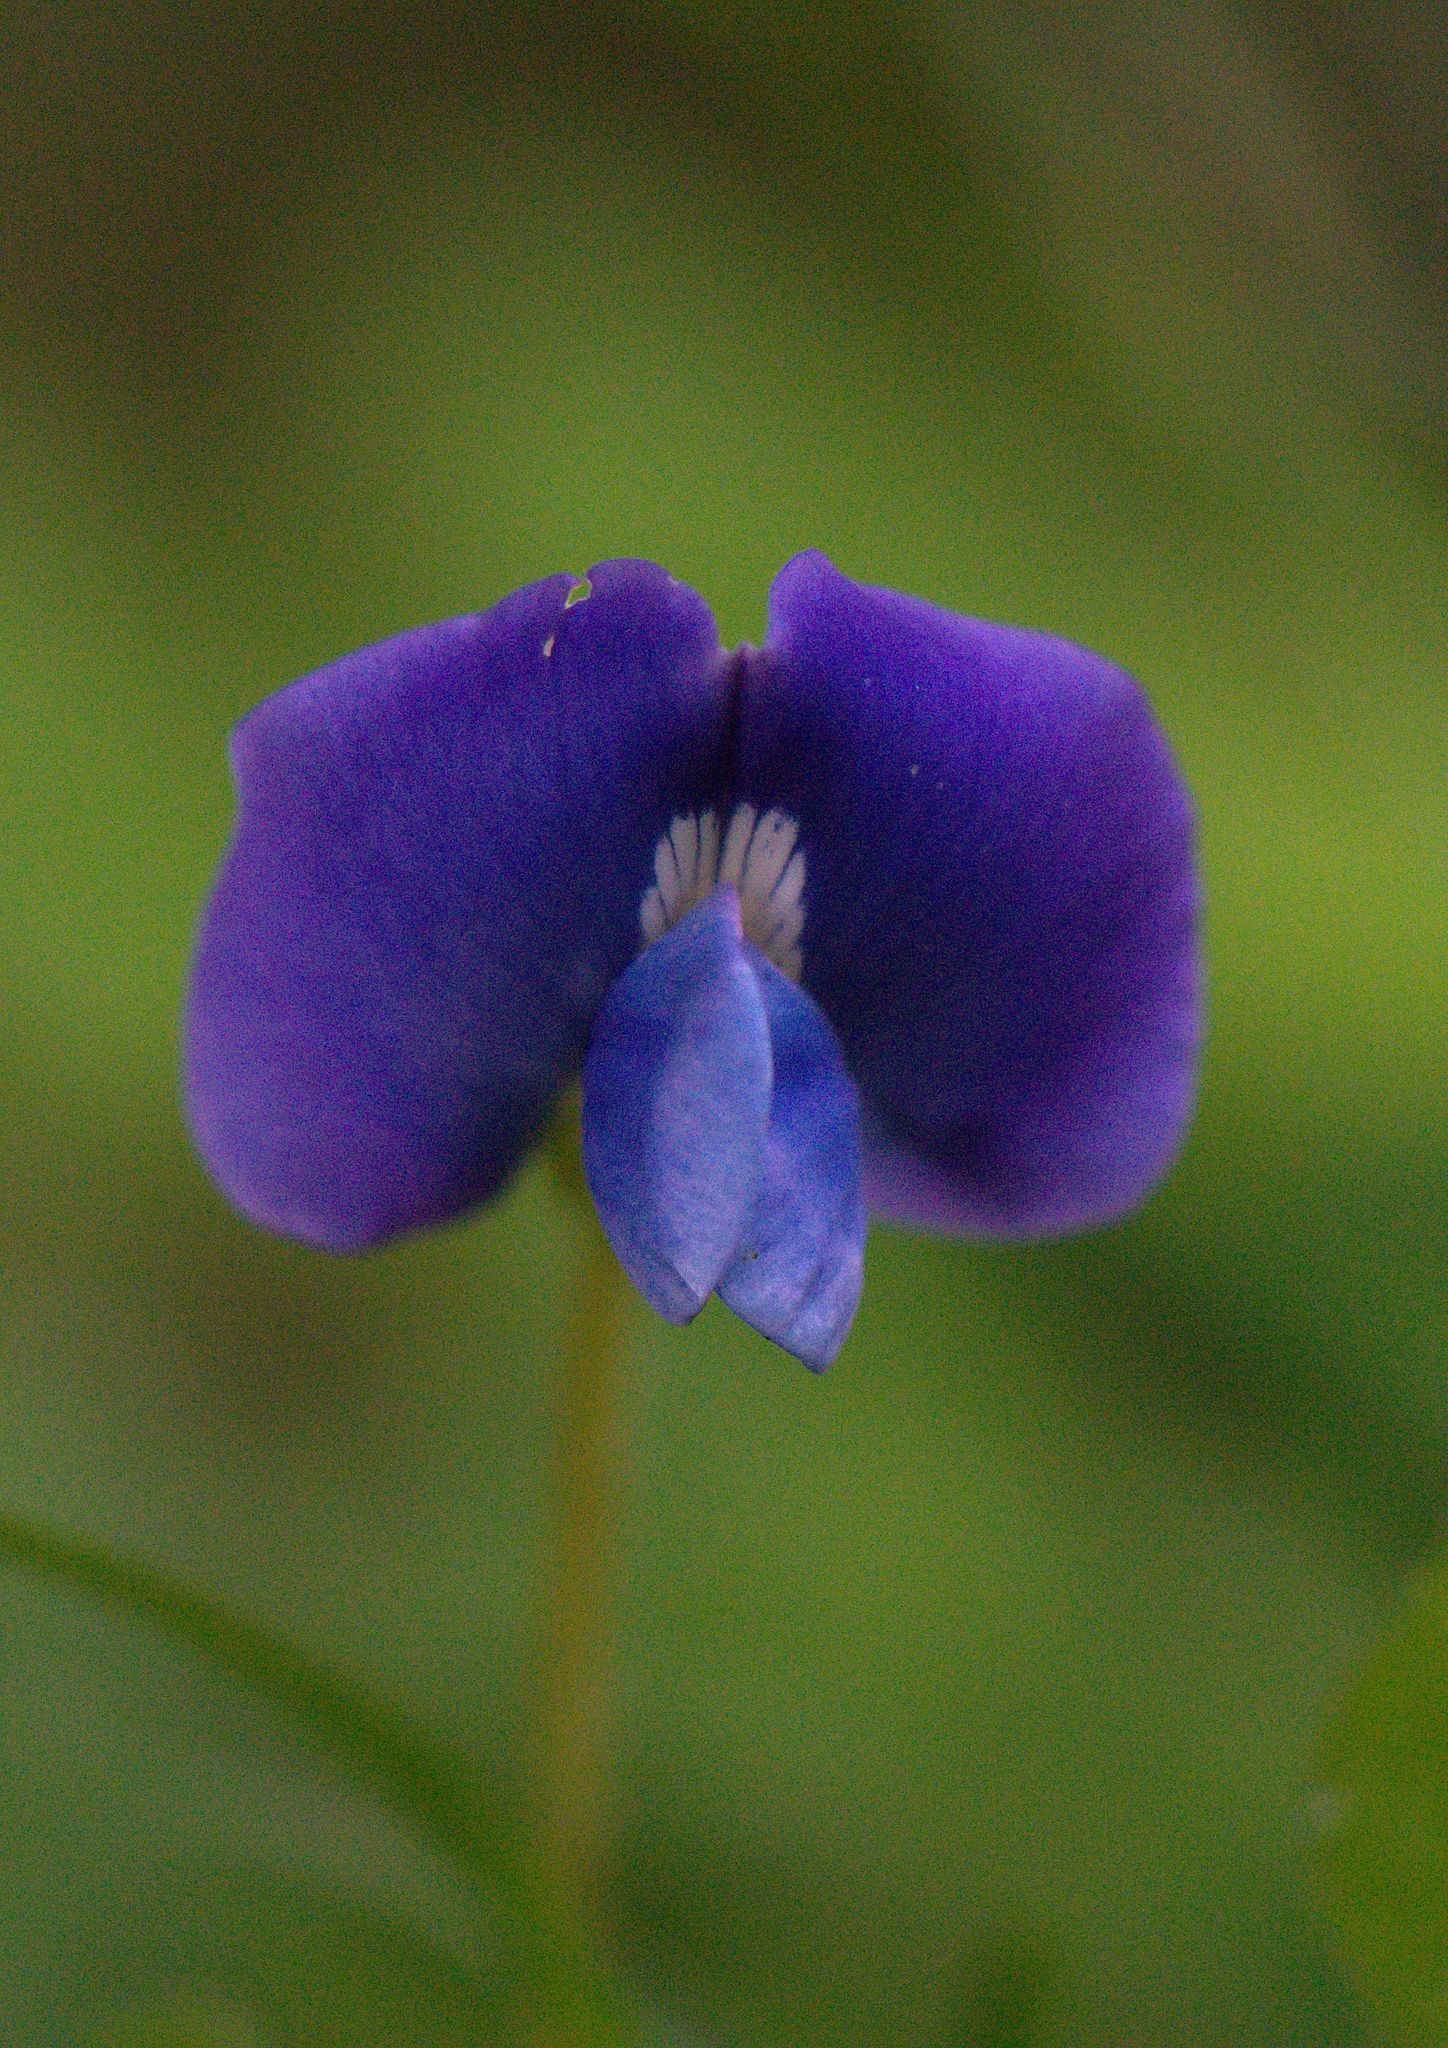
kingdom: Plantae
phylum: Tracheophyta
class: Magnoliopsida
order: Fabales
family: Fabaceae
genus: Parochetus
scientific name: Parochetus communis
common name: Blue oxalis
